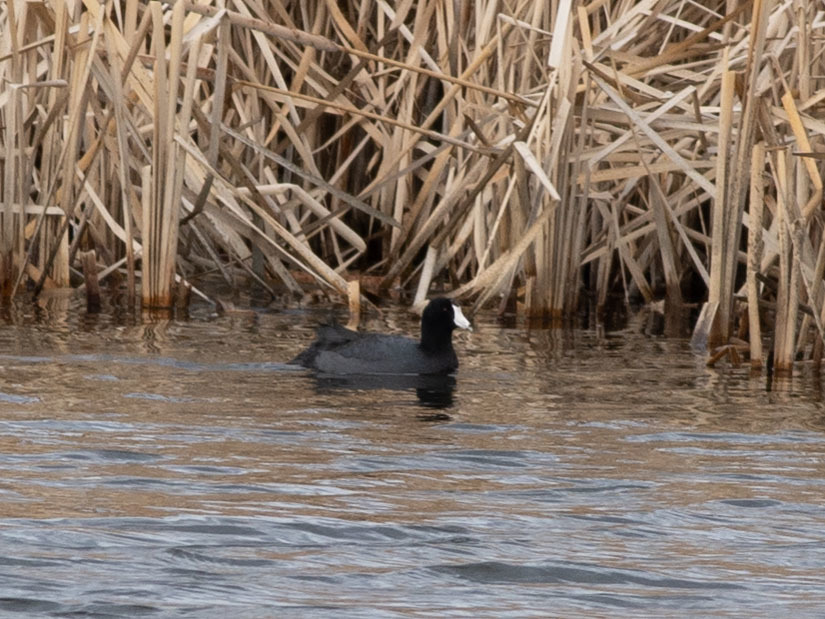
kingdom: Animalia
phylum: Chordata
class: Aves
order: Gruiformes
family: Rallidae
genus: Fulica
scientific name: Fulica americana
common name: American coot
